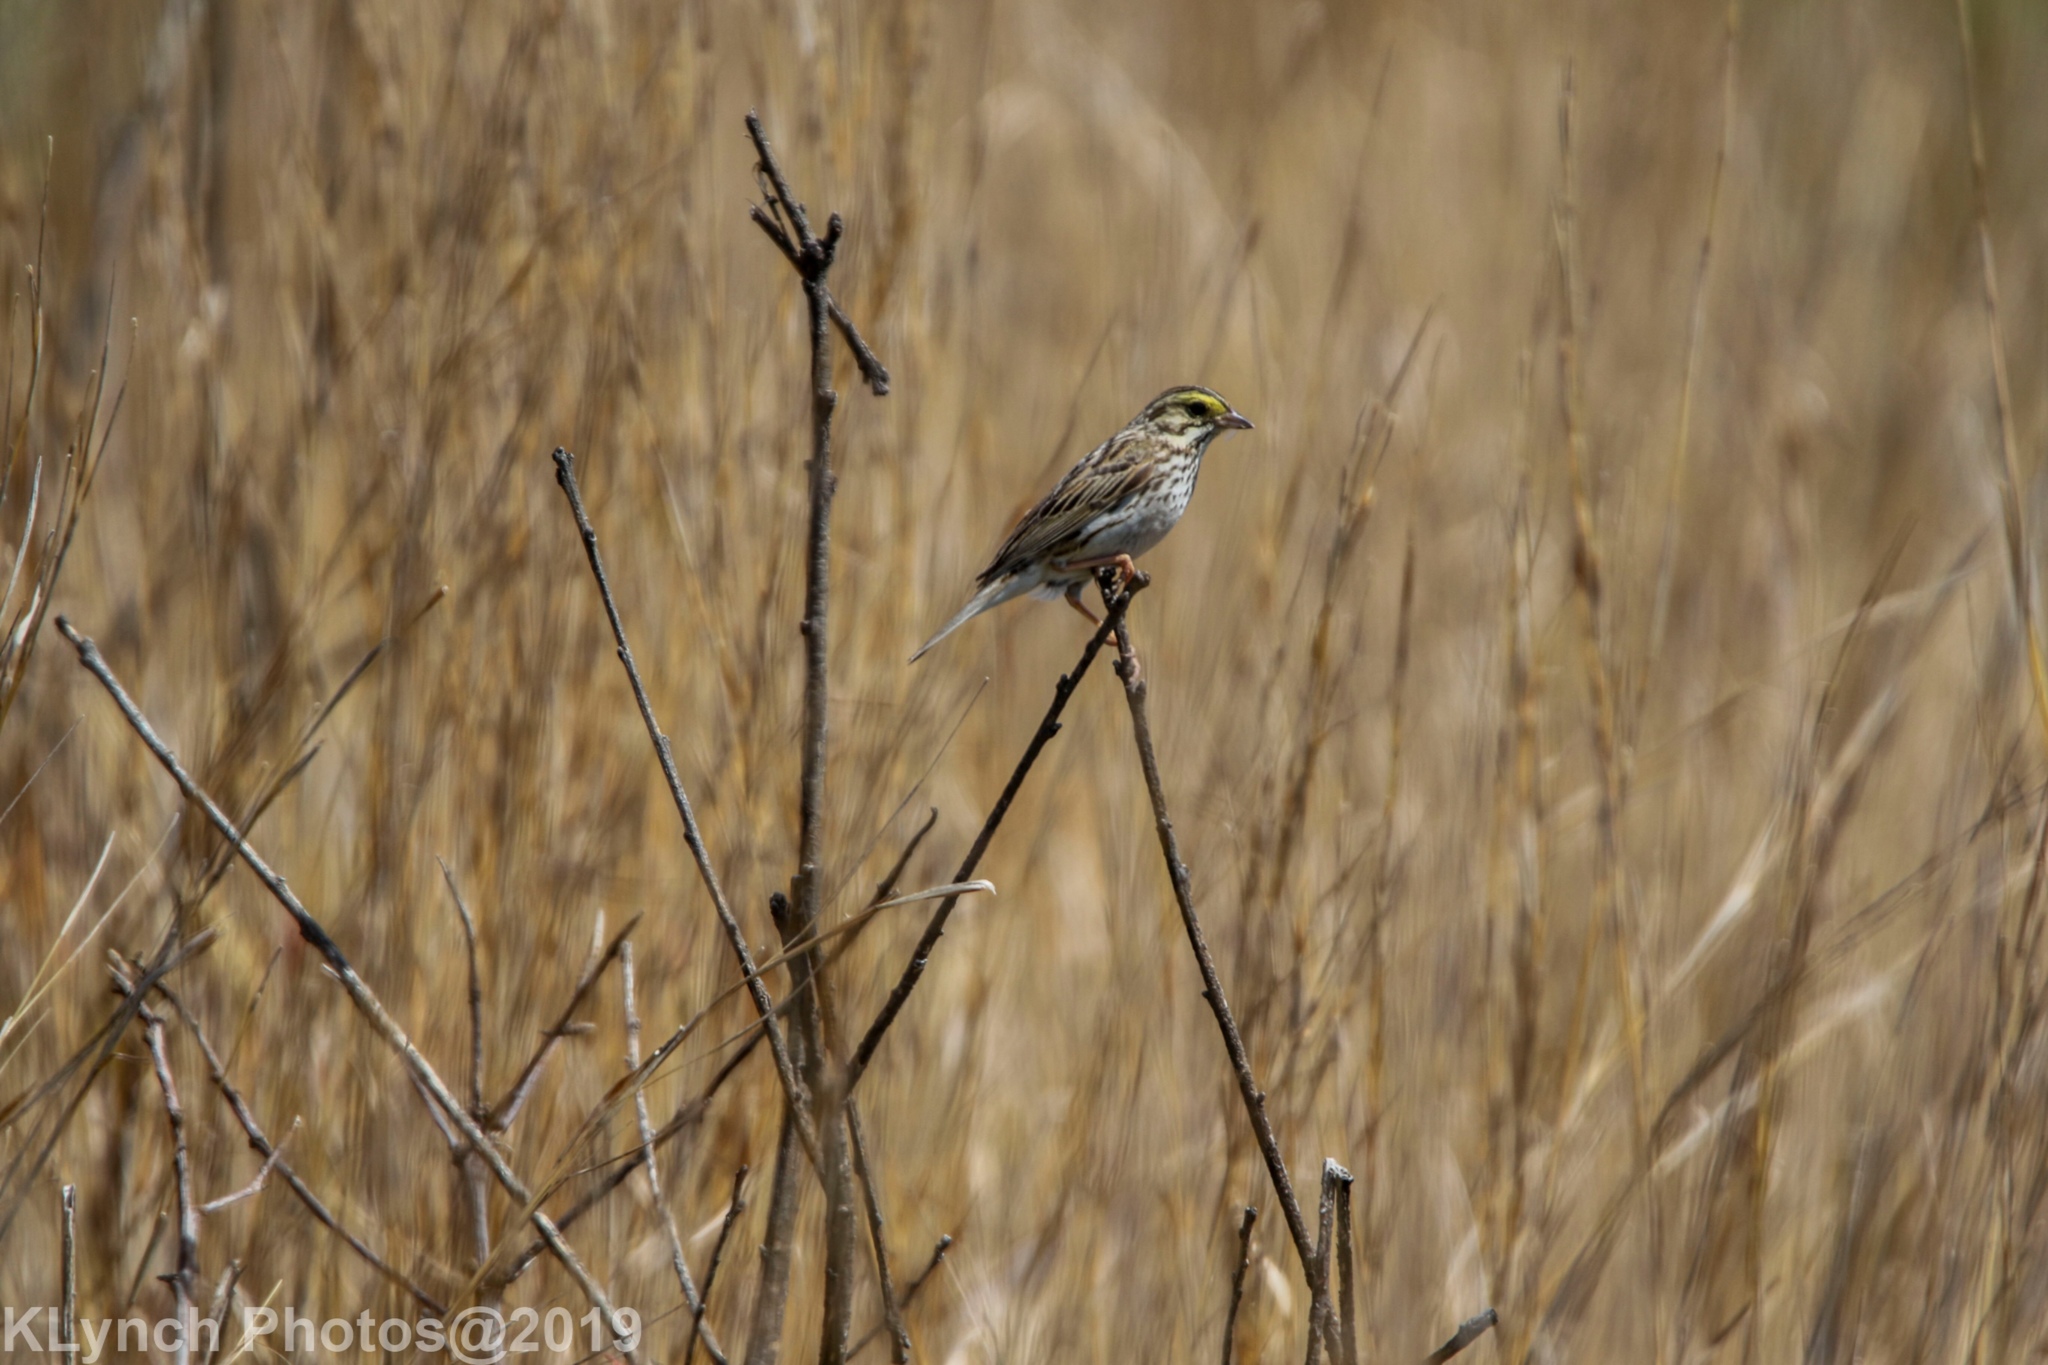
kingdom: Animalia
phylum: Chordata
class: Aves
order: Passeriformes
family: Passerellidae
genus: Passerculus
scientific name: Passerculus sandwichensis
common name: Savannah sparrow
